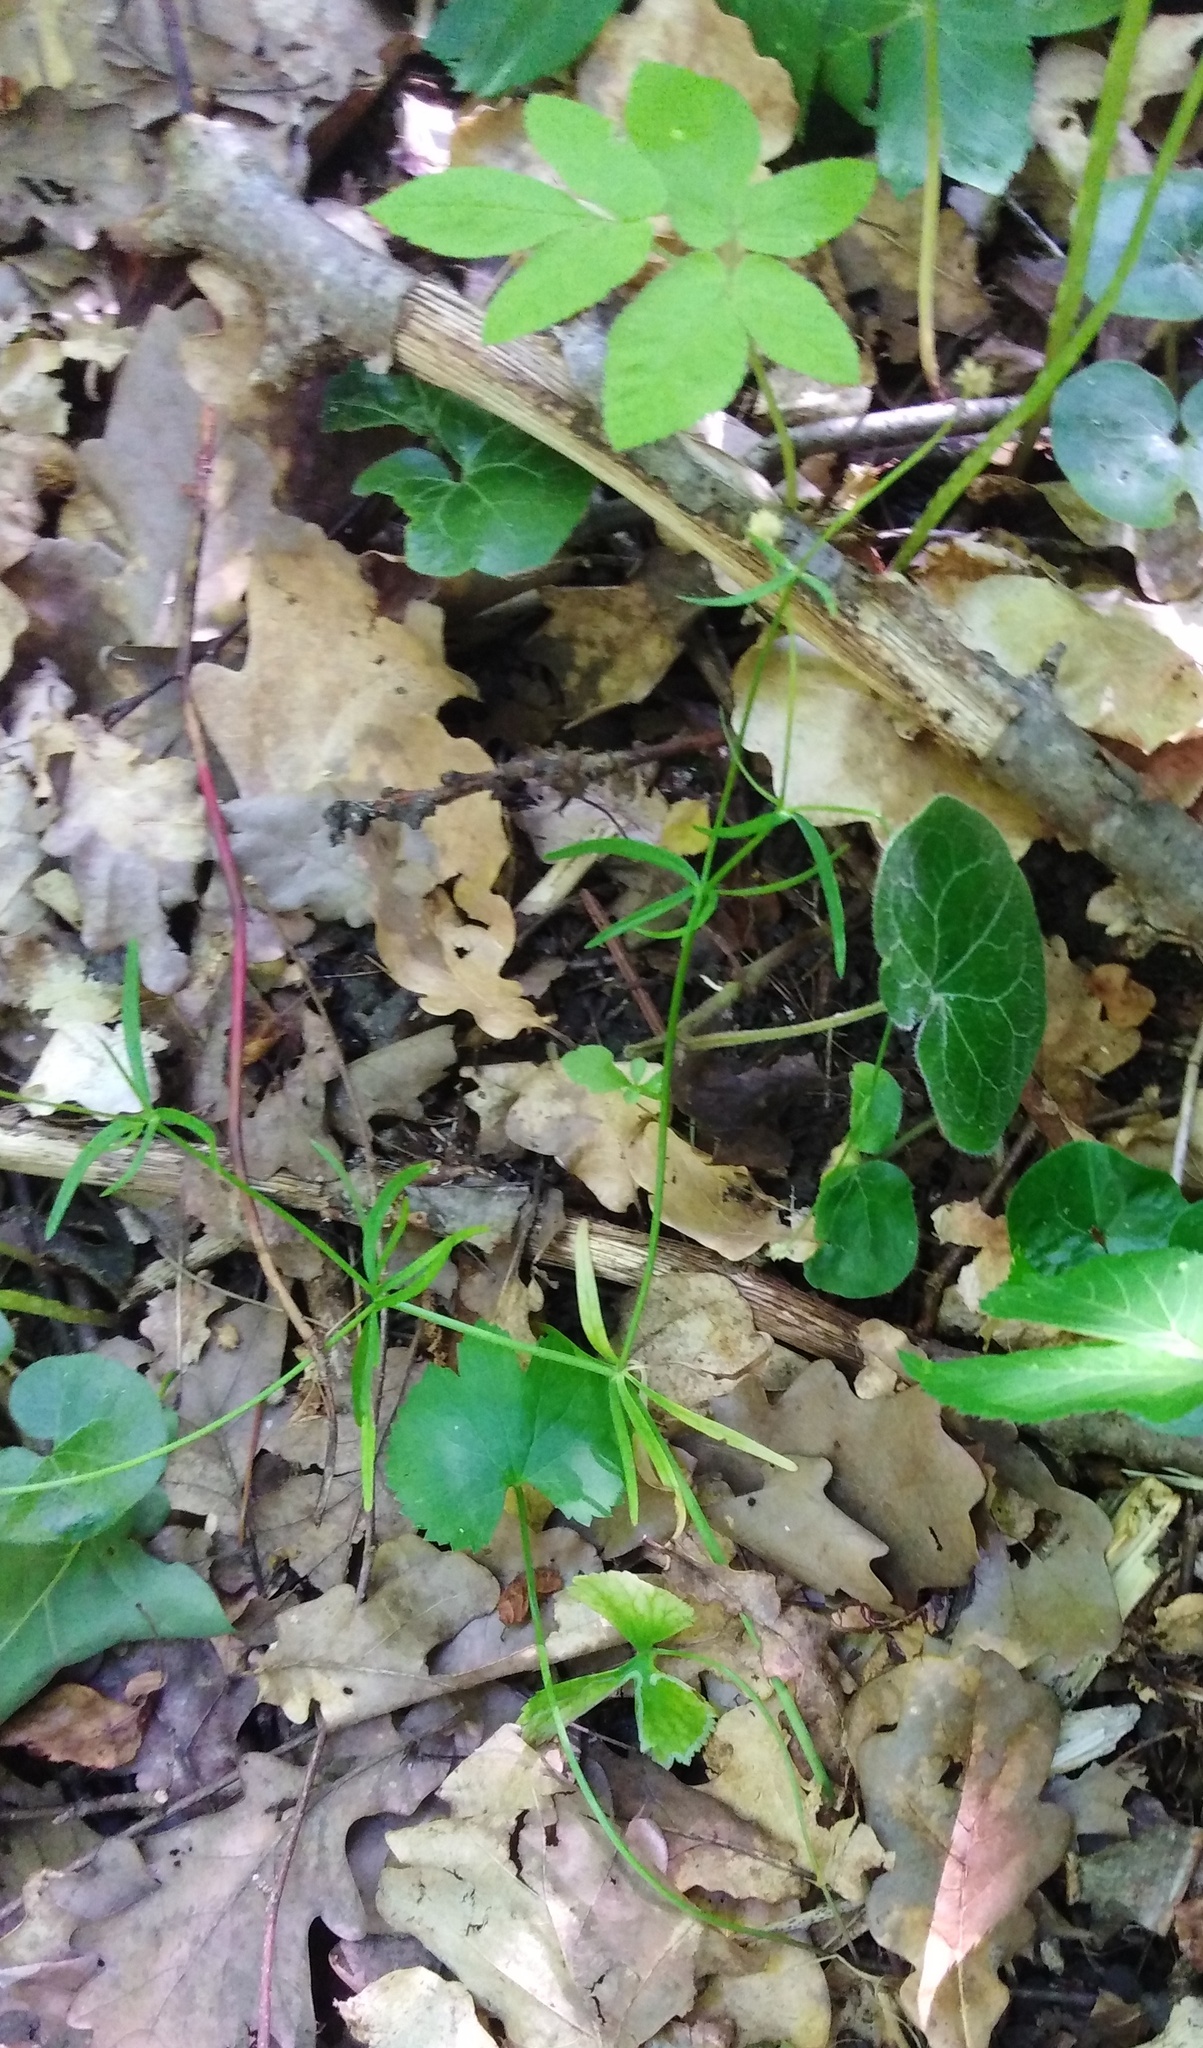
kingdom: Plantae
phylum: Tracheophyta
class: Magnoliopsida
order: Ranunculales
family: Ranunculaceae
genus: Ranunculus
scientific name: Ranunculus auricomus
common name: Goldilocks buttercup
